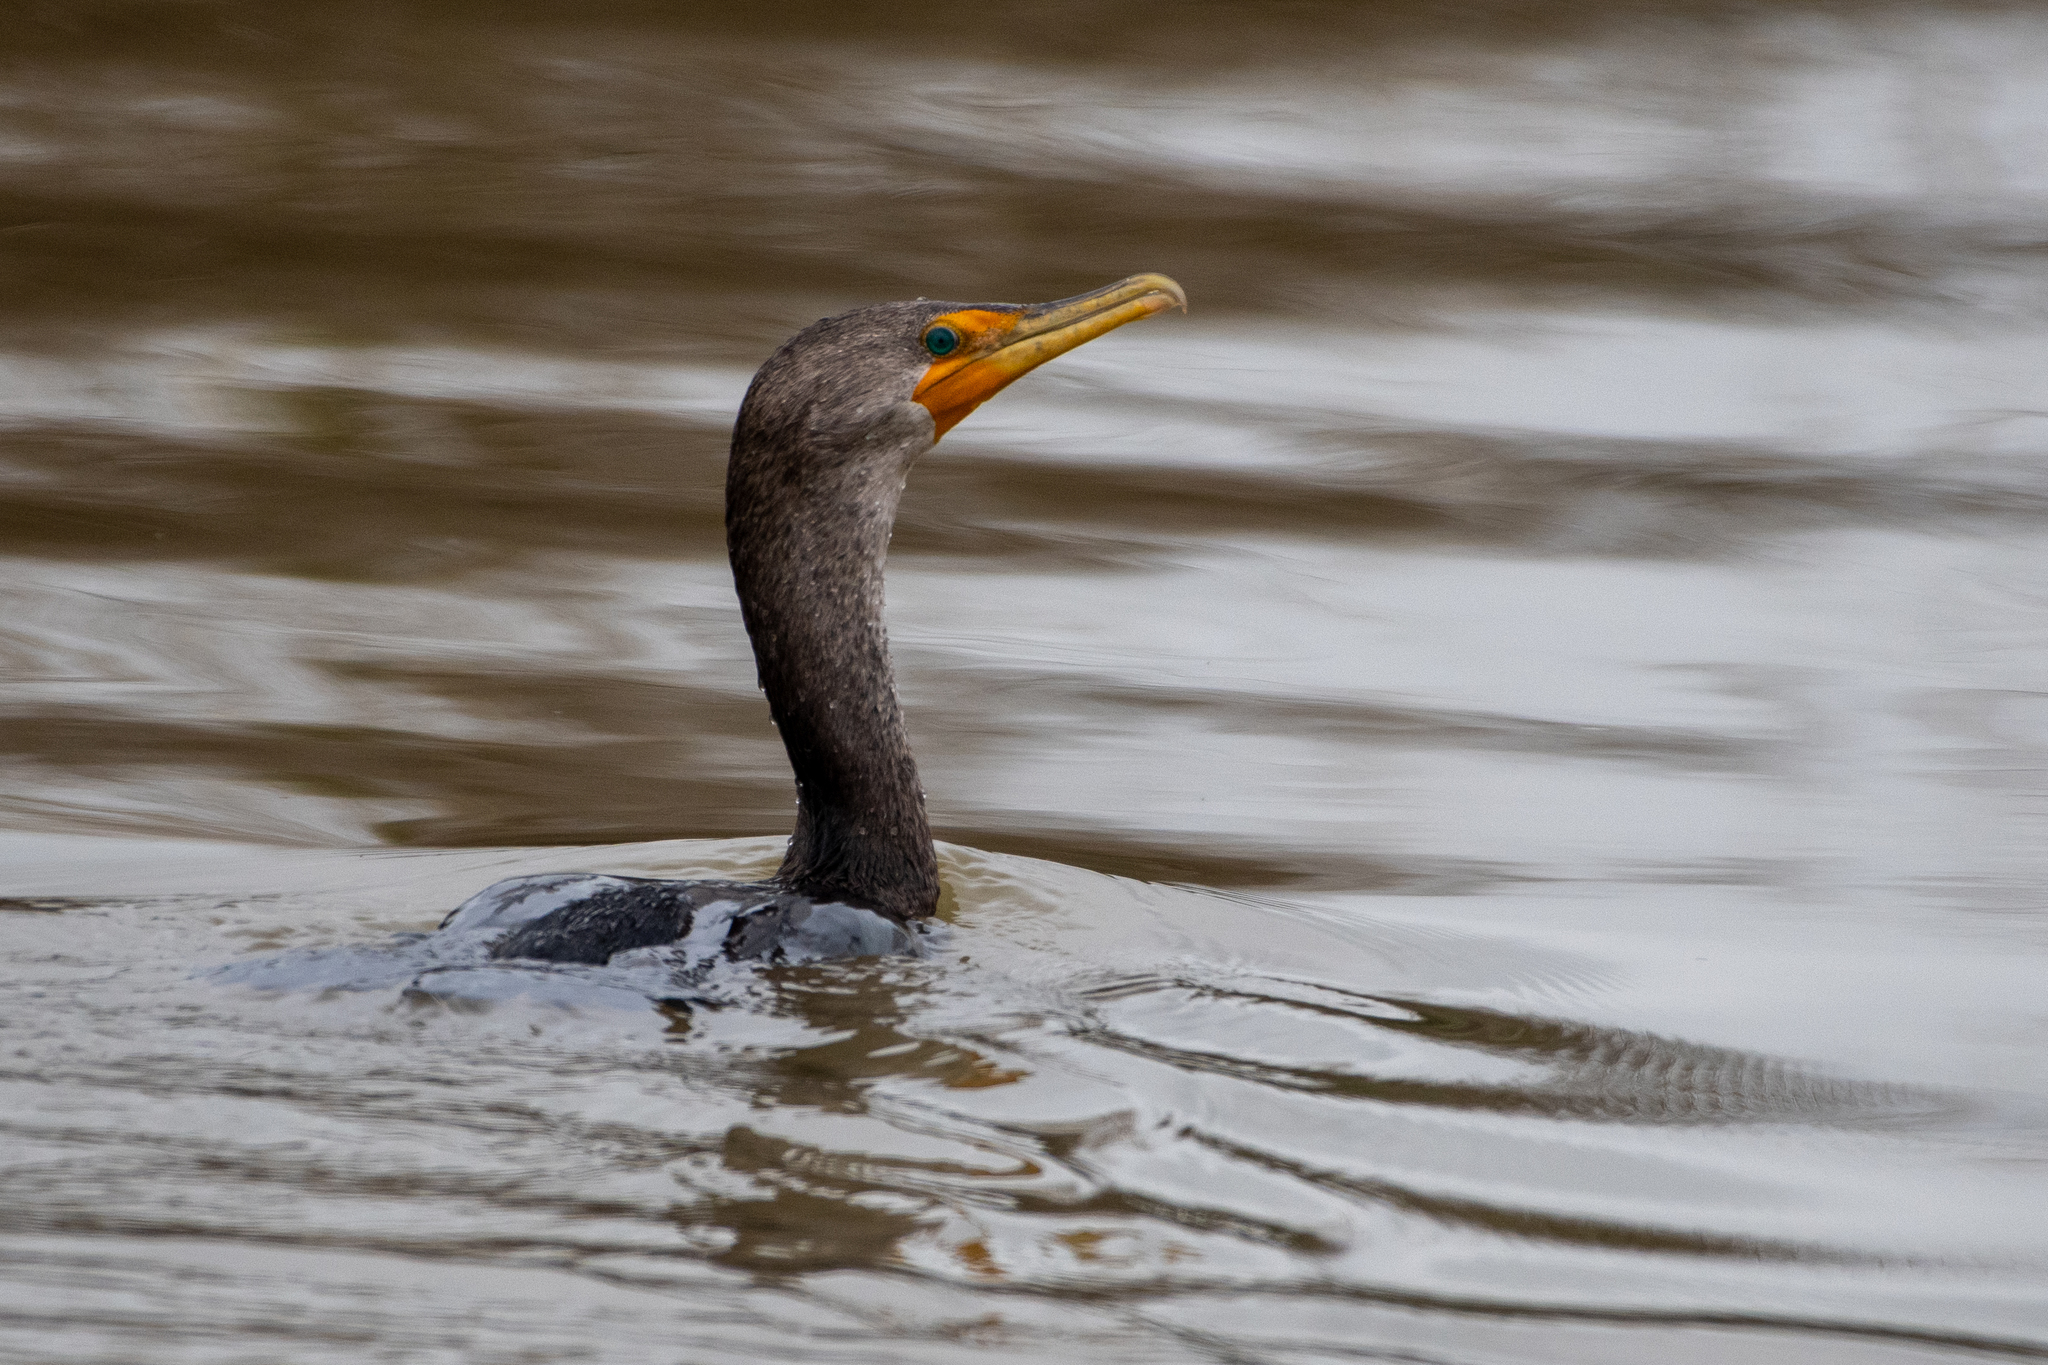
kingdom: Animalia
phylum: Chordata
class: Aves
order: Suliformes
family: Phalacrocoracidae
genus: Phalacrocorax
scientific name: Phalacrocorax auritus
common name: Double-crested cormorant
